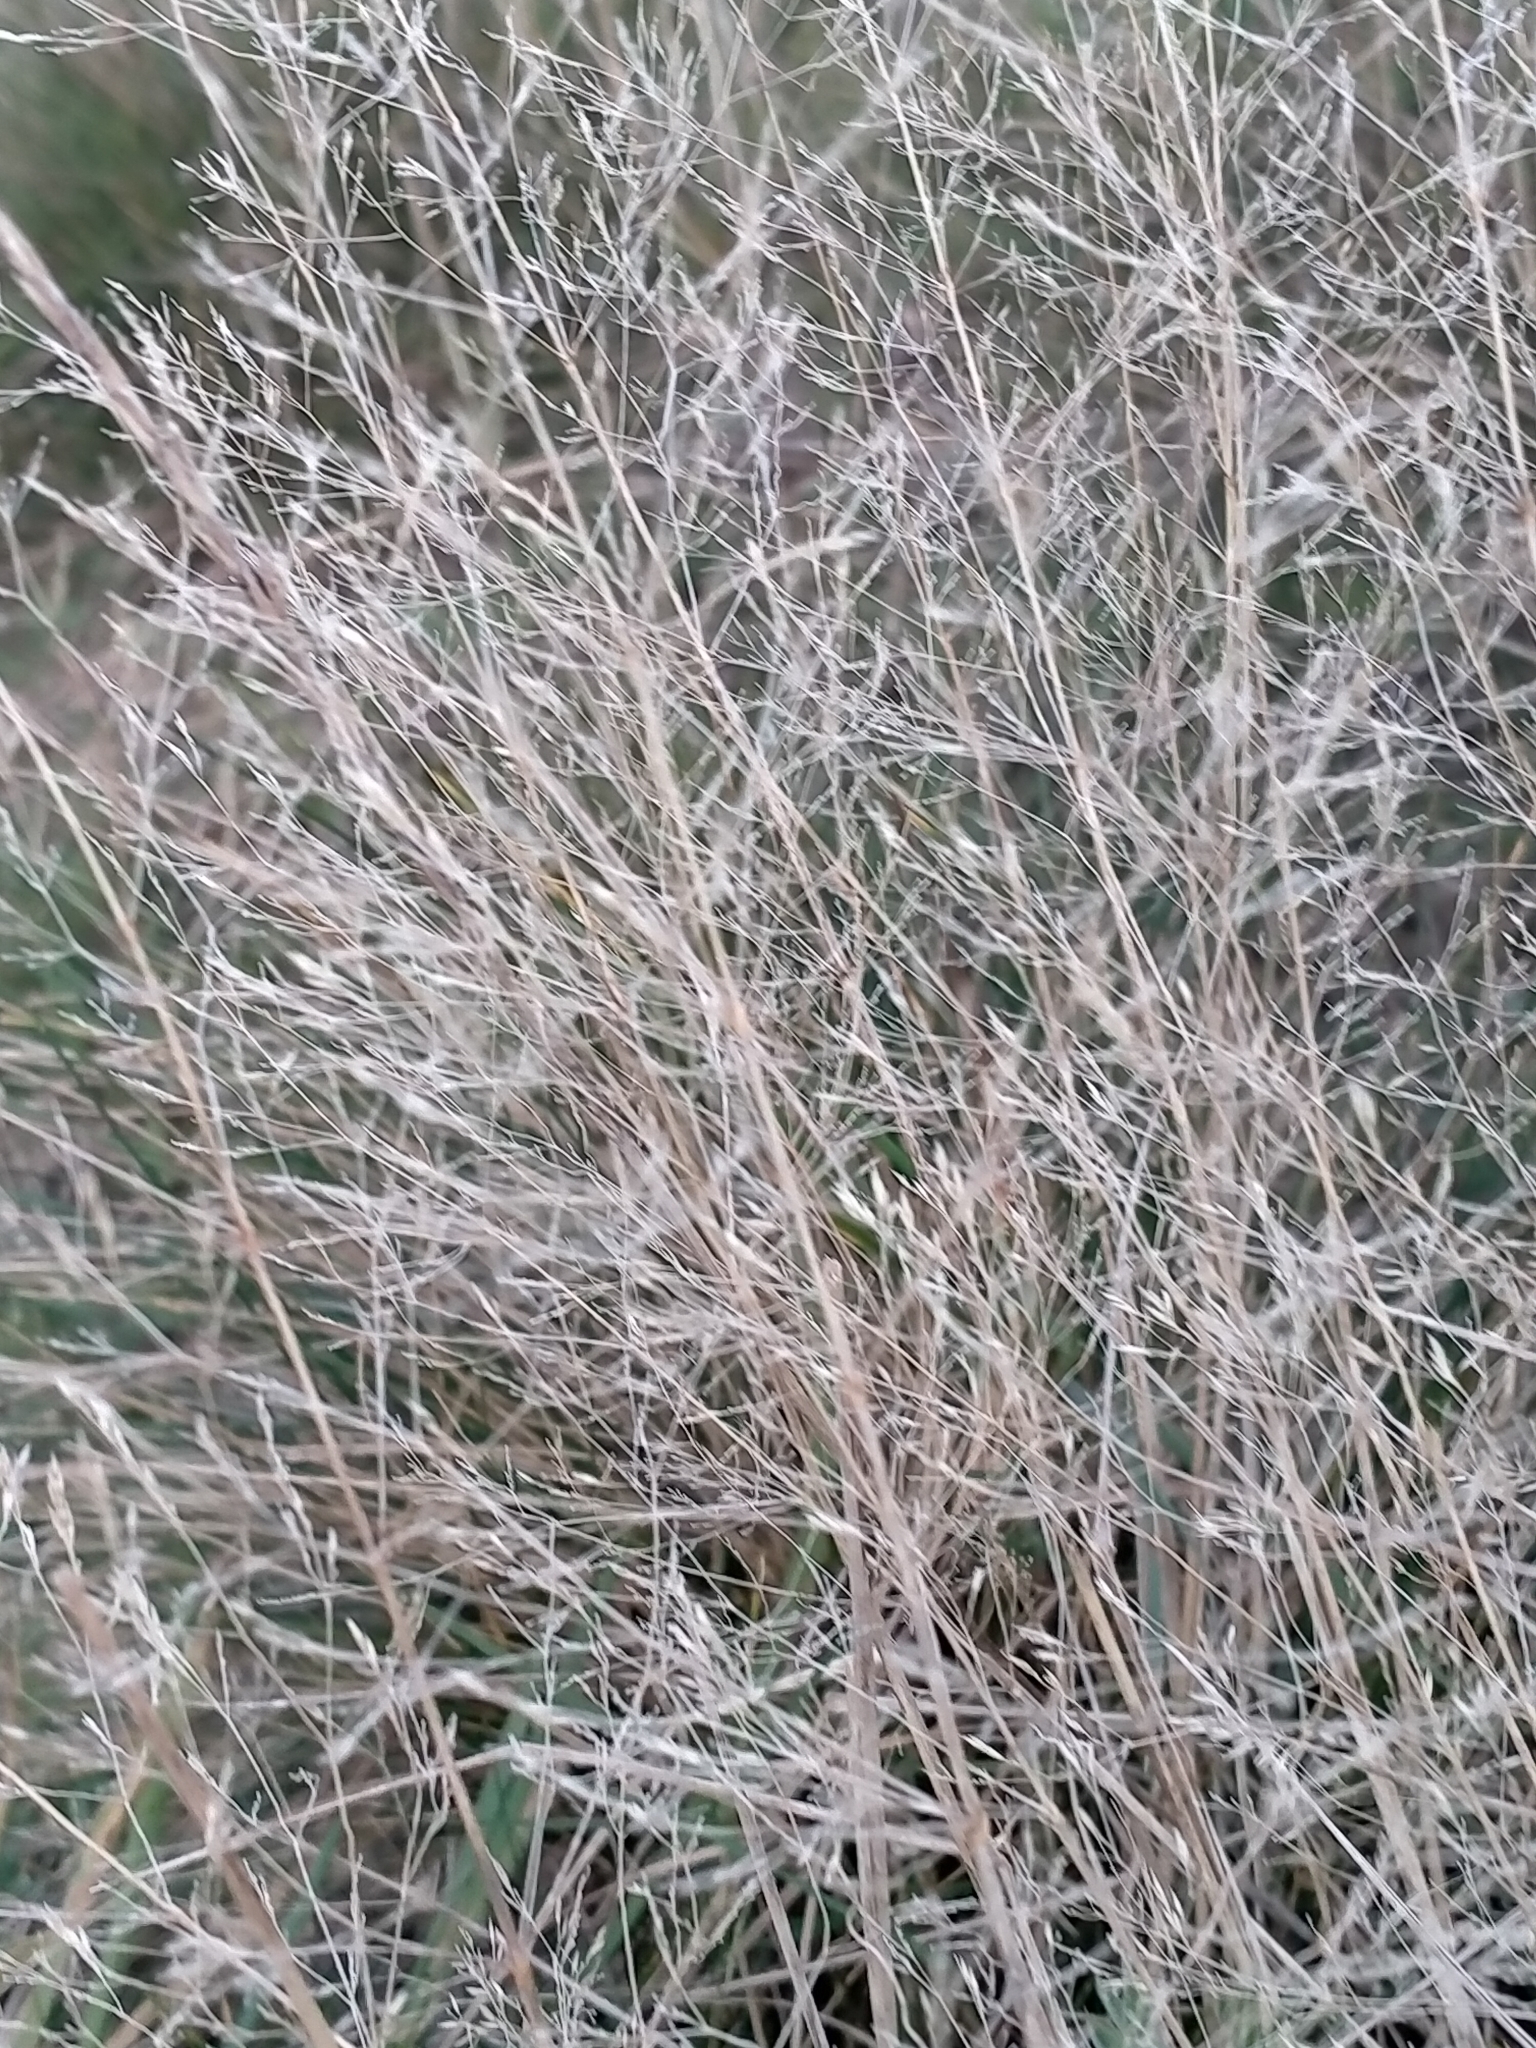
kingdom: Plantae
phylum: Tracheophyta
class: Liliopsida
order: Poales
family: Poaceae
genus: Agrostis
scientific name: Agrostis capillaris
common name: Colonial bentgrass
